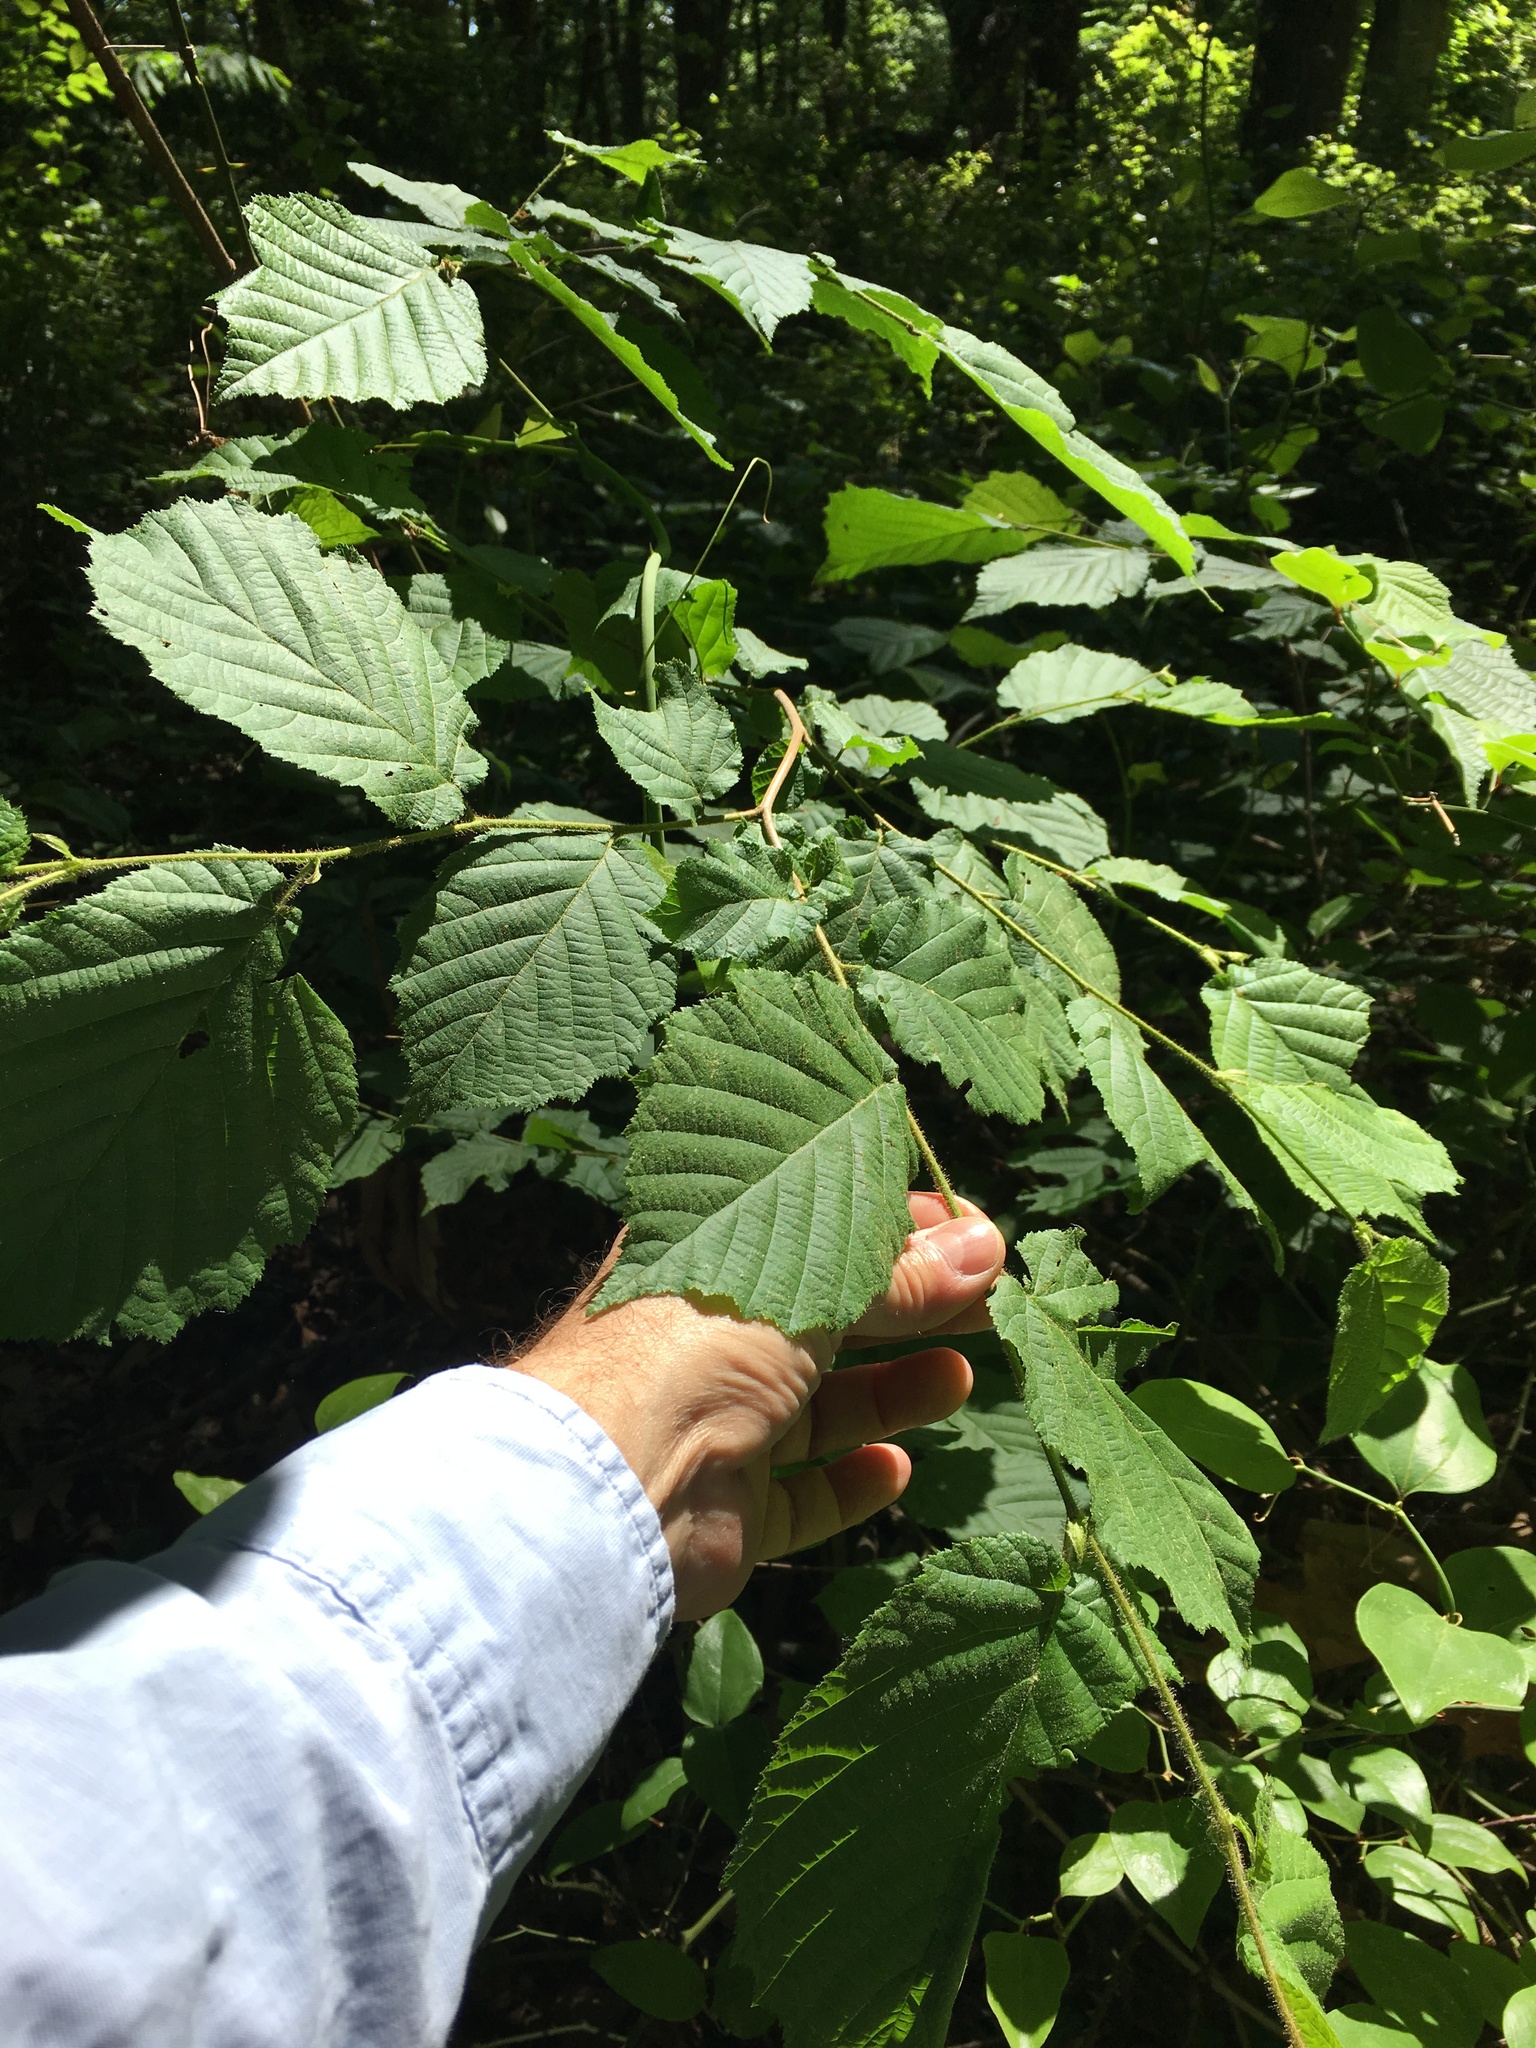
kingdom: Plantae
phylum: Tracheophyta
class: Magnoliopsida
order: Fagales
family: Betulaceae
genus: Corylus
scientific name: Corylus americana
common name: American hazel
